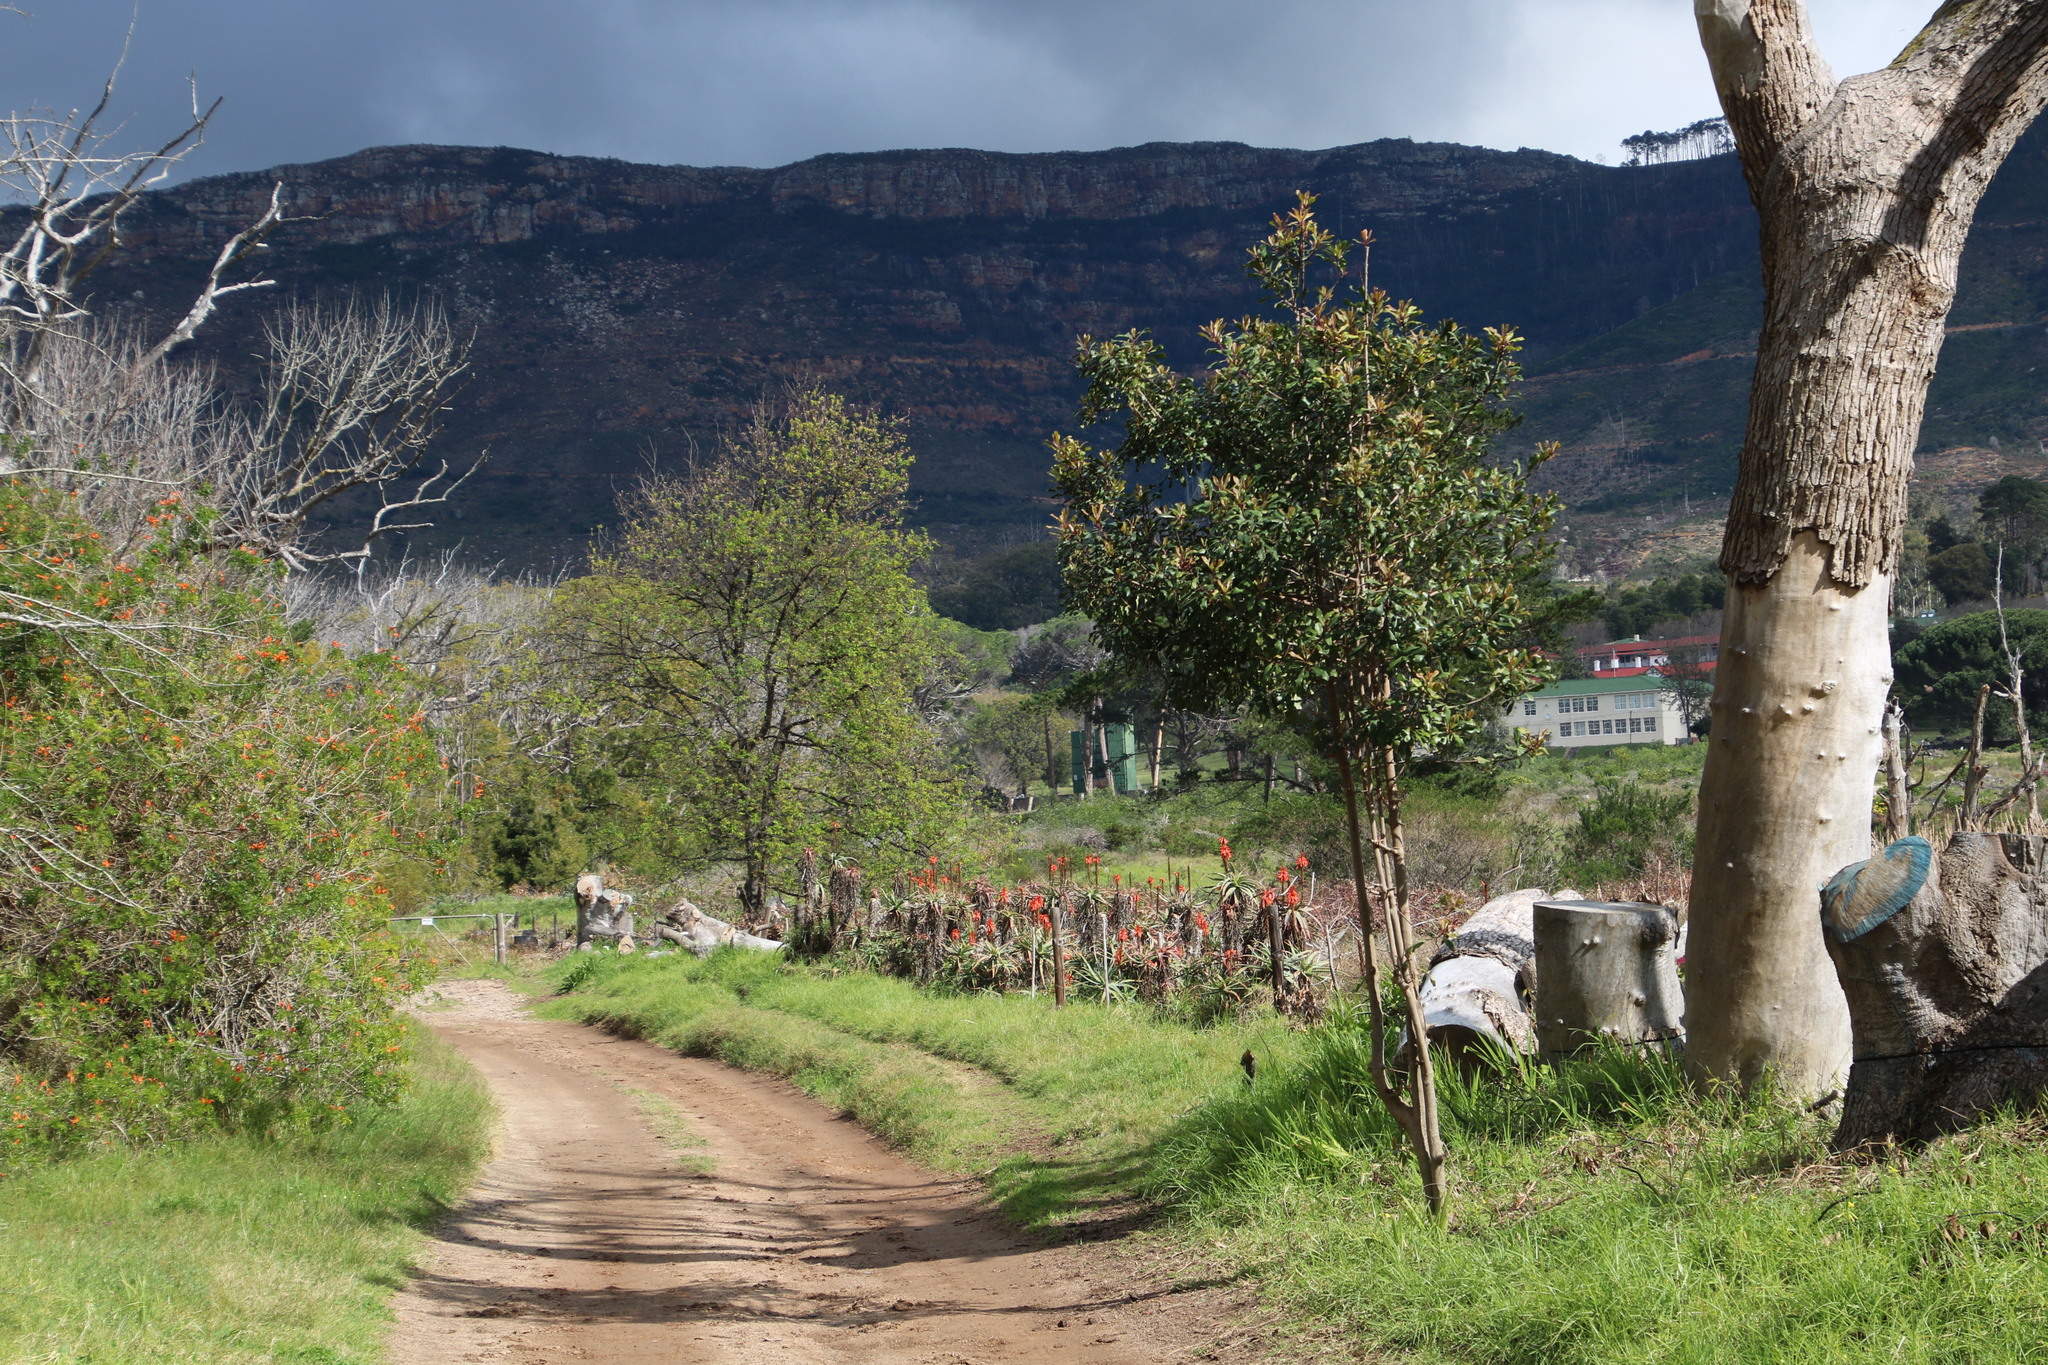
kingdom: Plantae
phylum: Tracheophyta
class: Liliopsida
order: Asparagales
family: Asphodelaceae
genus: Aloe
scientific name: Aloe arborescens
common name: Candelabra aloe
